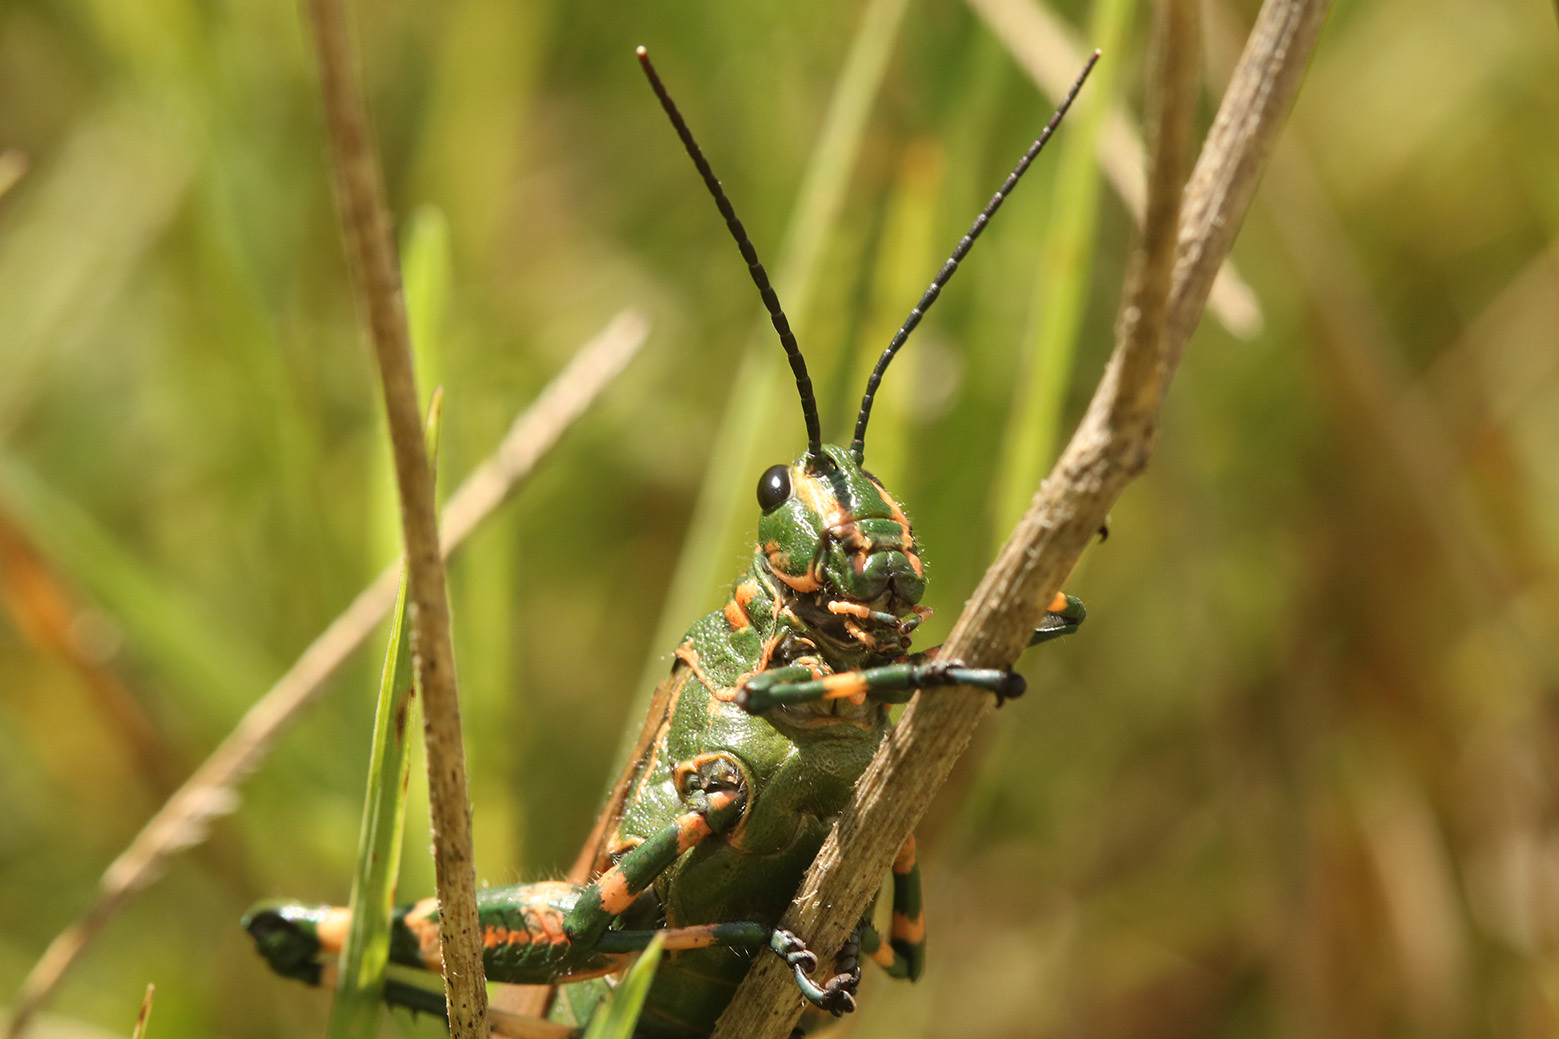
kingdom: Animalia
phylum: Arthropoda
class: Insecta
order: Orthoptera
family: Romaleidae
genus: Chromacris
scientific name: Chromacris speciosa
